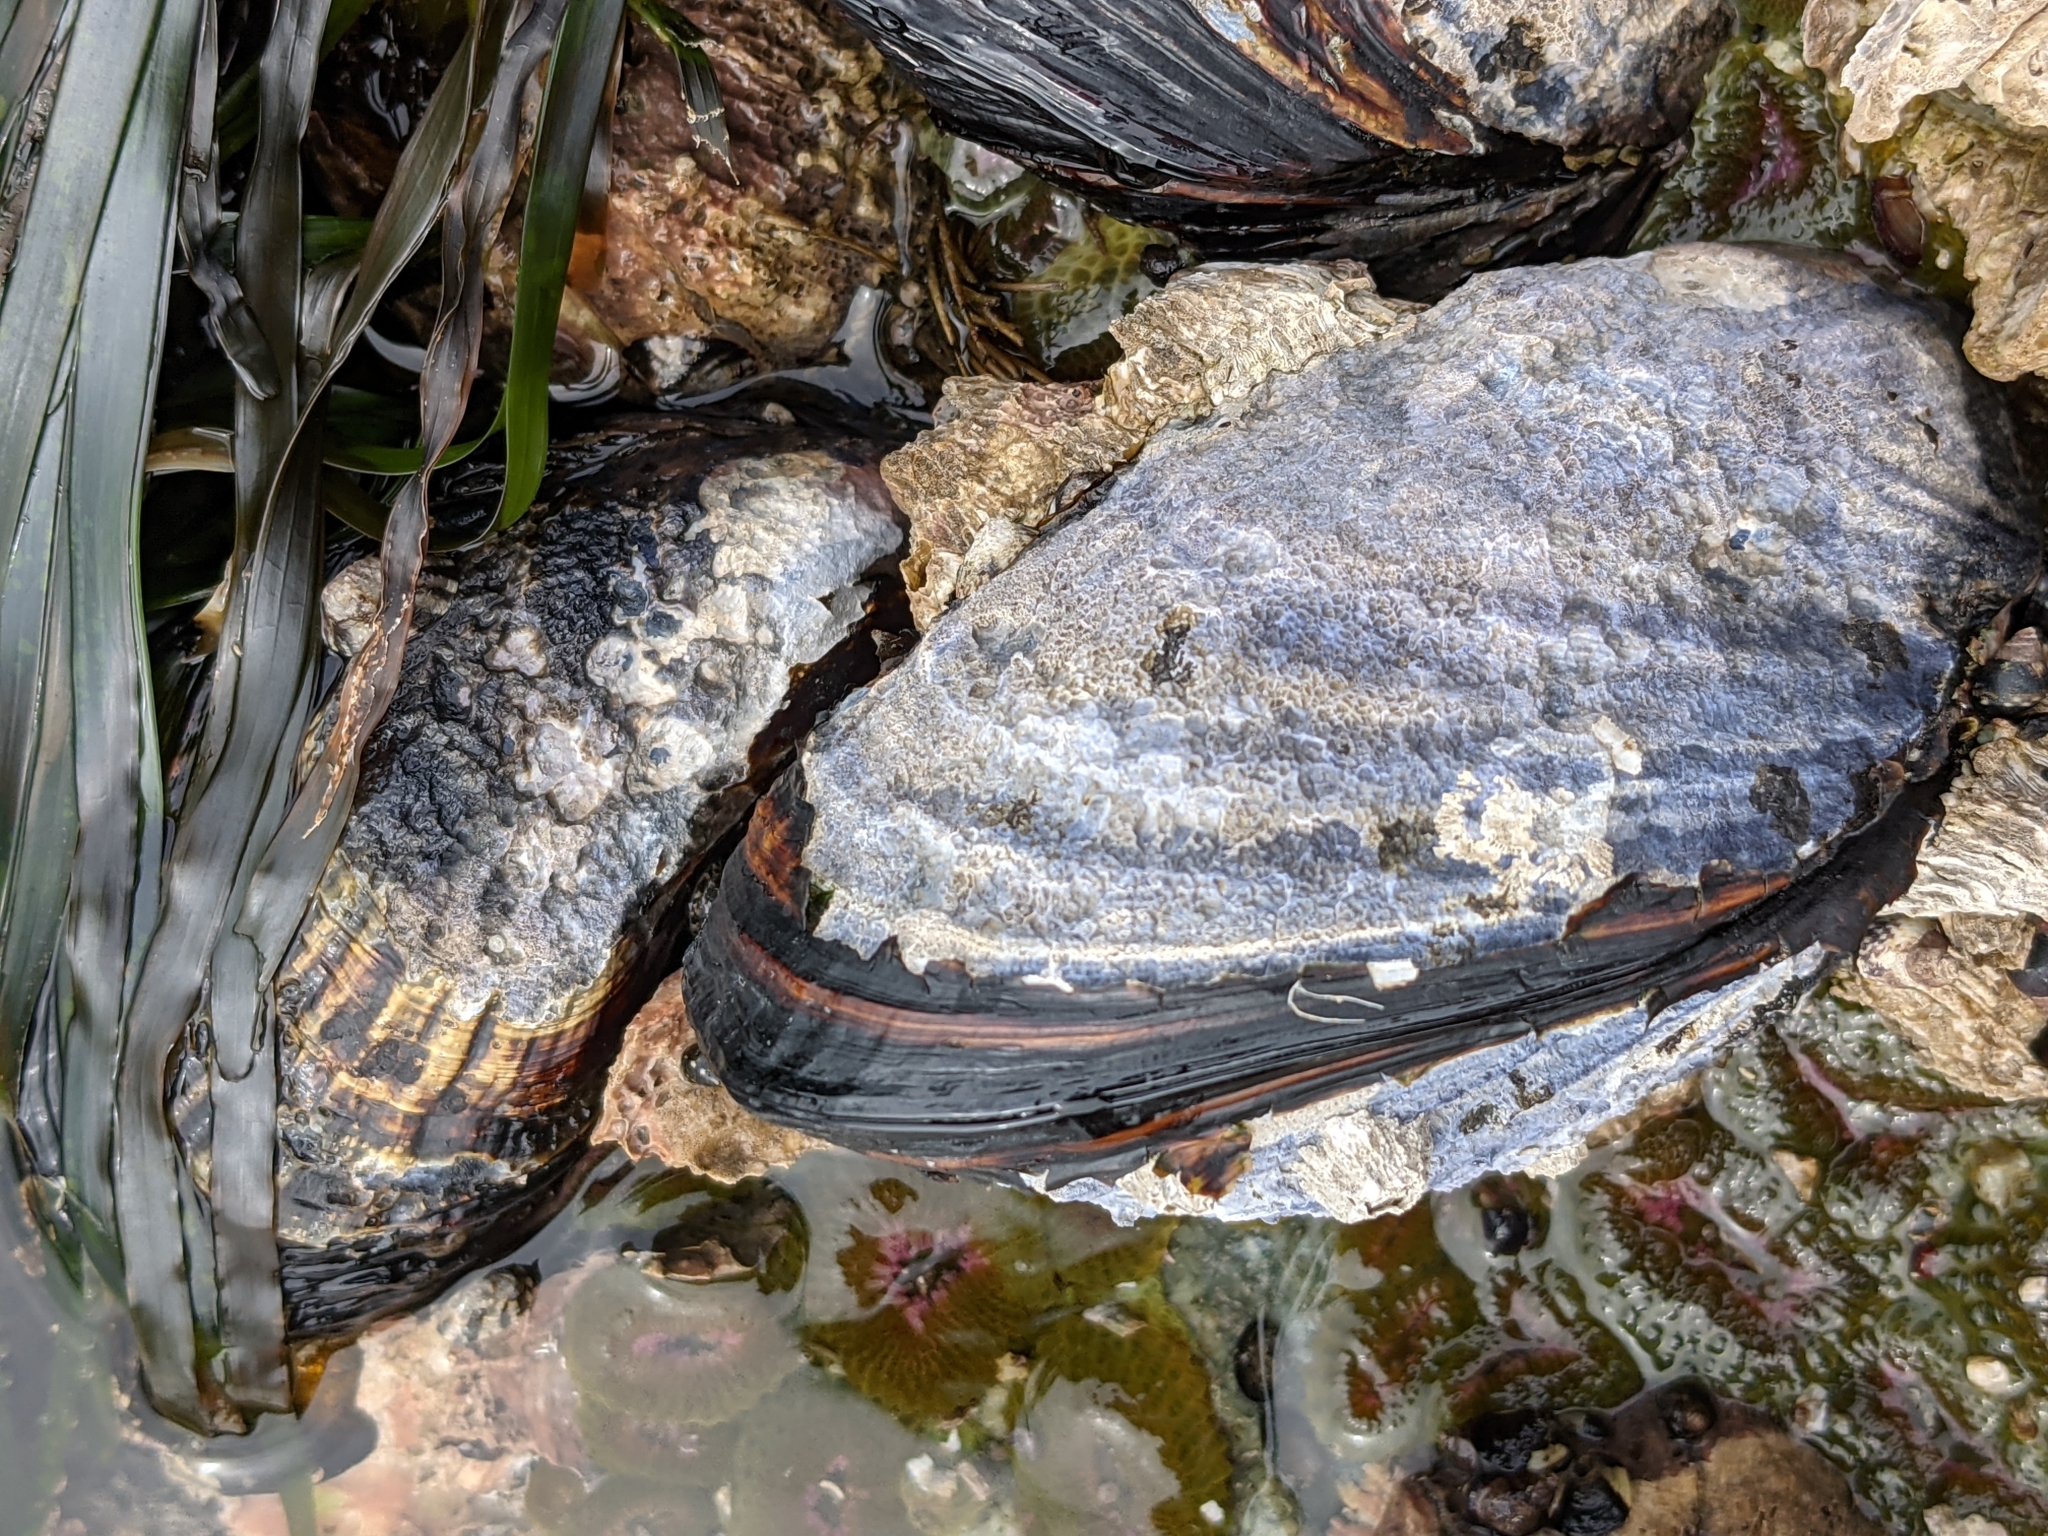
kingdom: Animalia
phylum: Mollusca
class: Bivalvia
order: Mytilida
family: Mytilidae
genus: Mytilus
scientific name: Mytilus californianus
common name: California mussel
